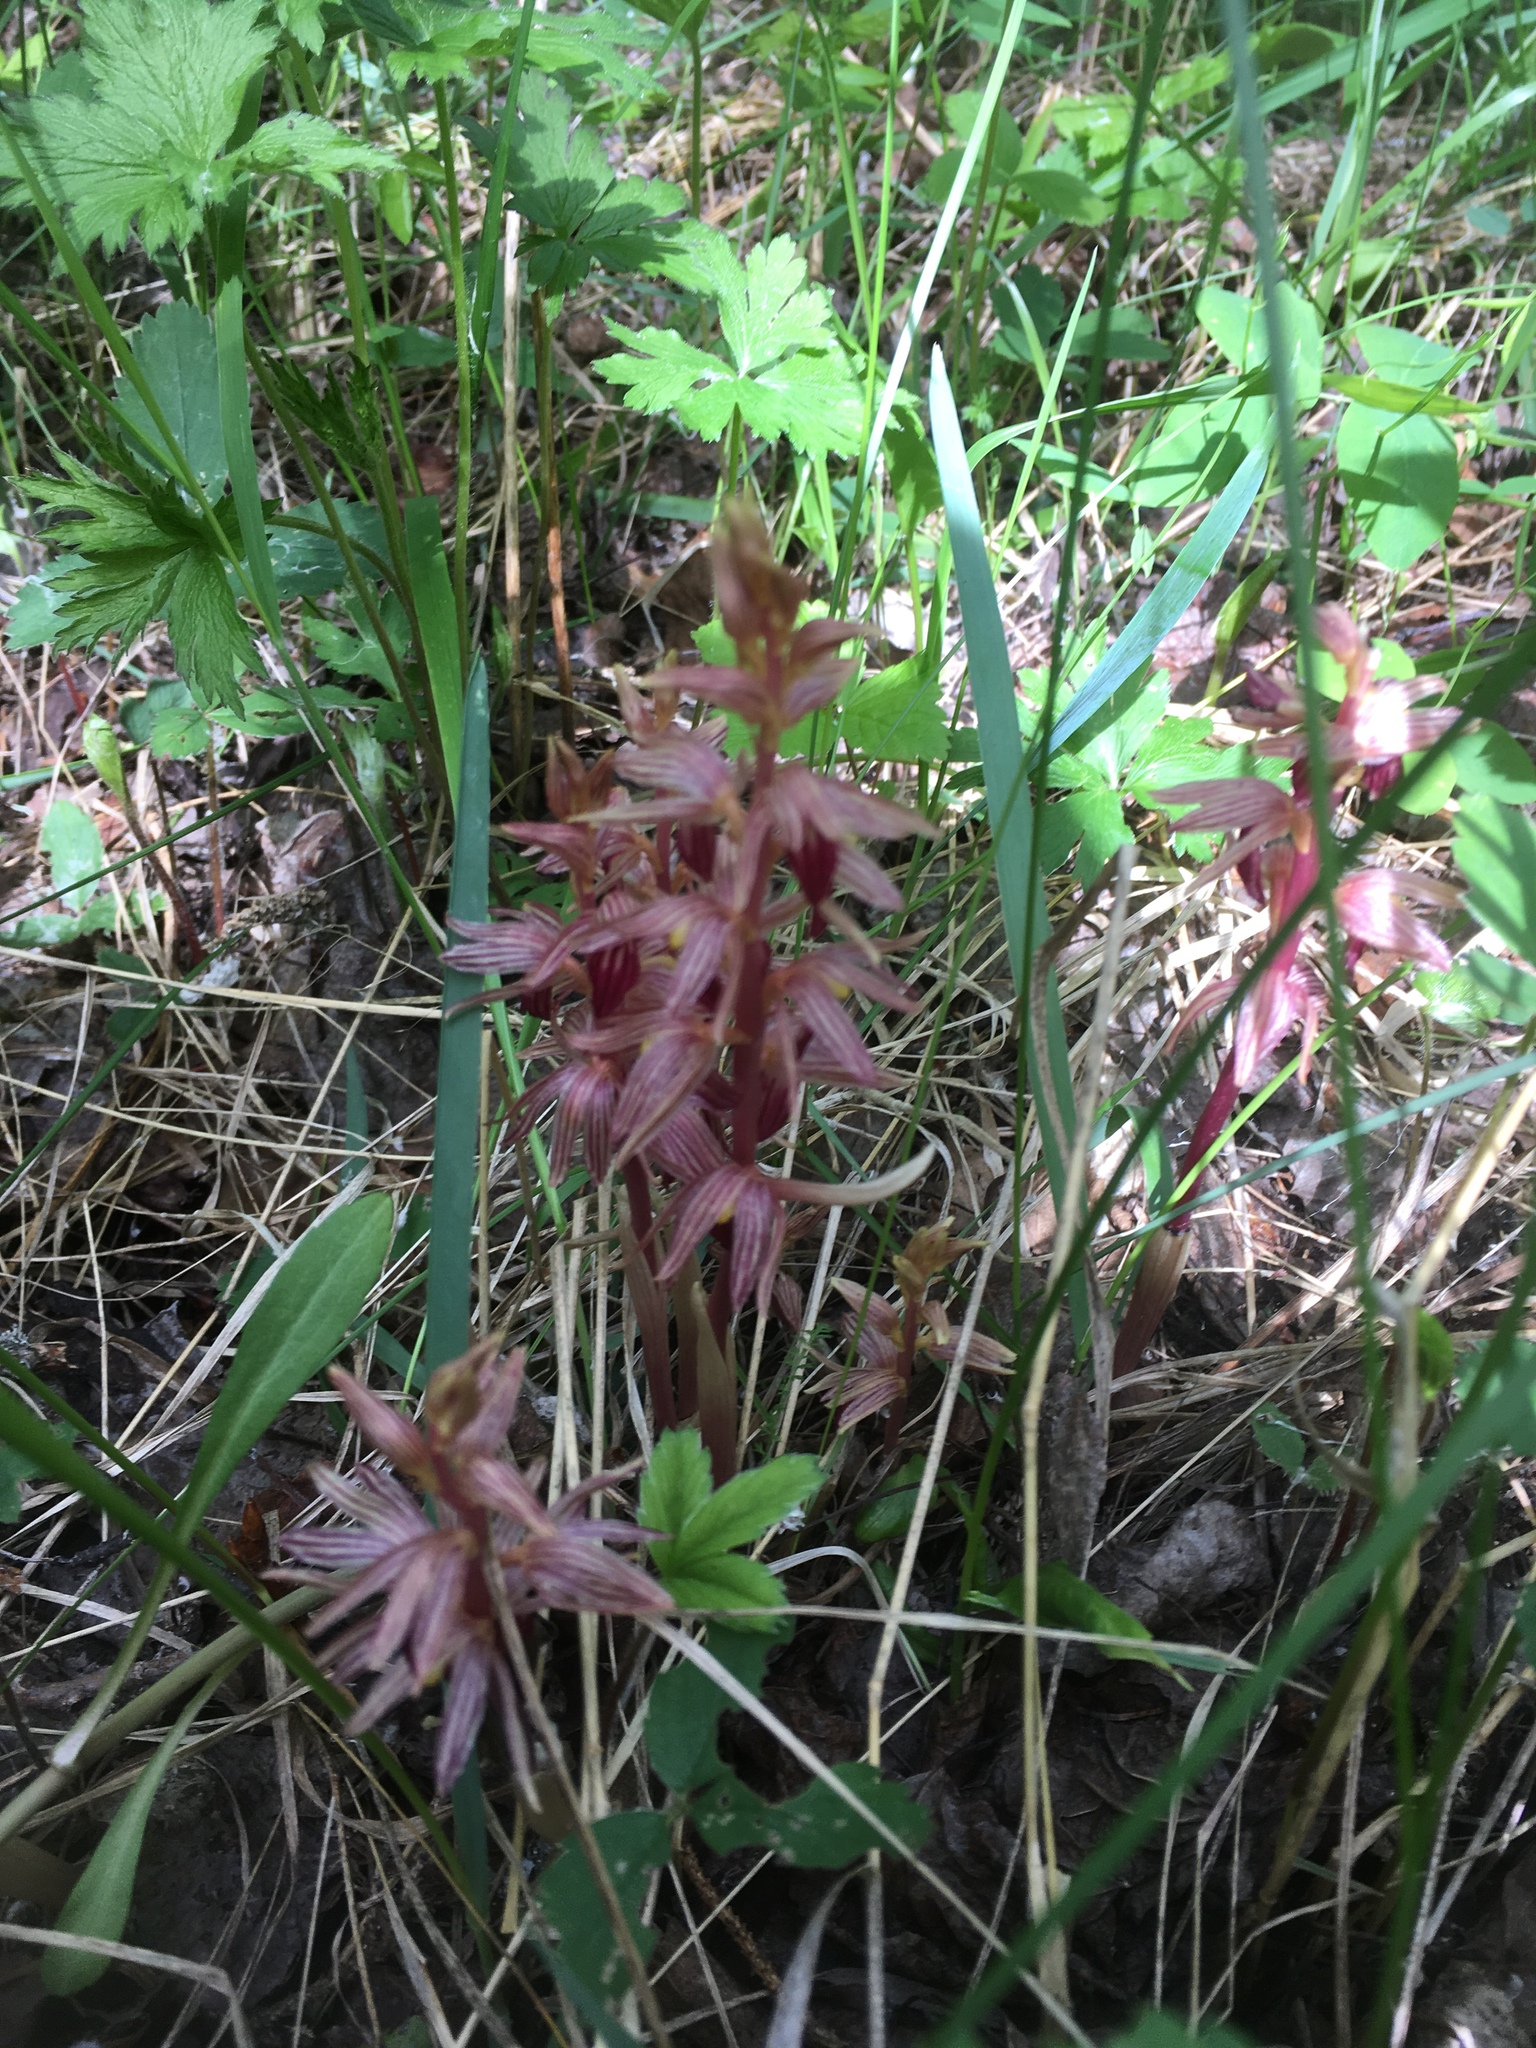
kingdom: Plantae
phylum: Tracheophyta
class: Liliopsida
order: Asparagales
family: Orchidaceae
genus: Corallorhiza
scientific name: Corallorhiza striata
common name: Hooded coralroot
